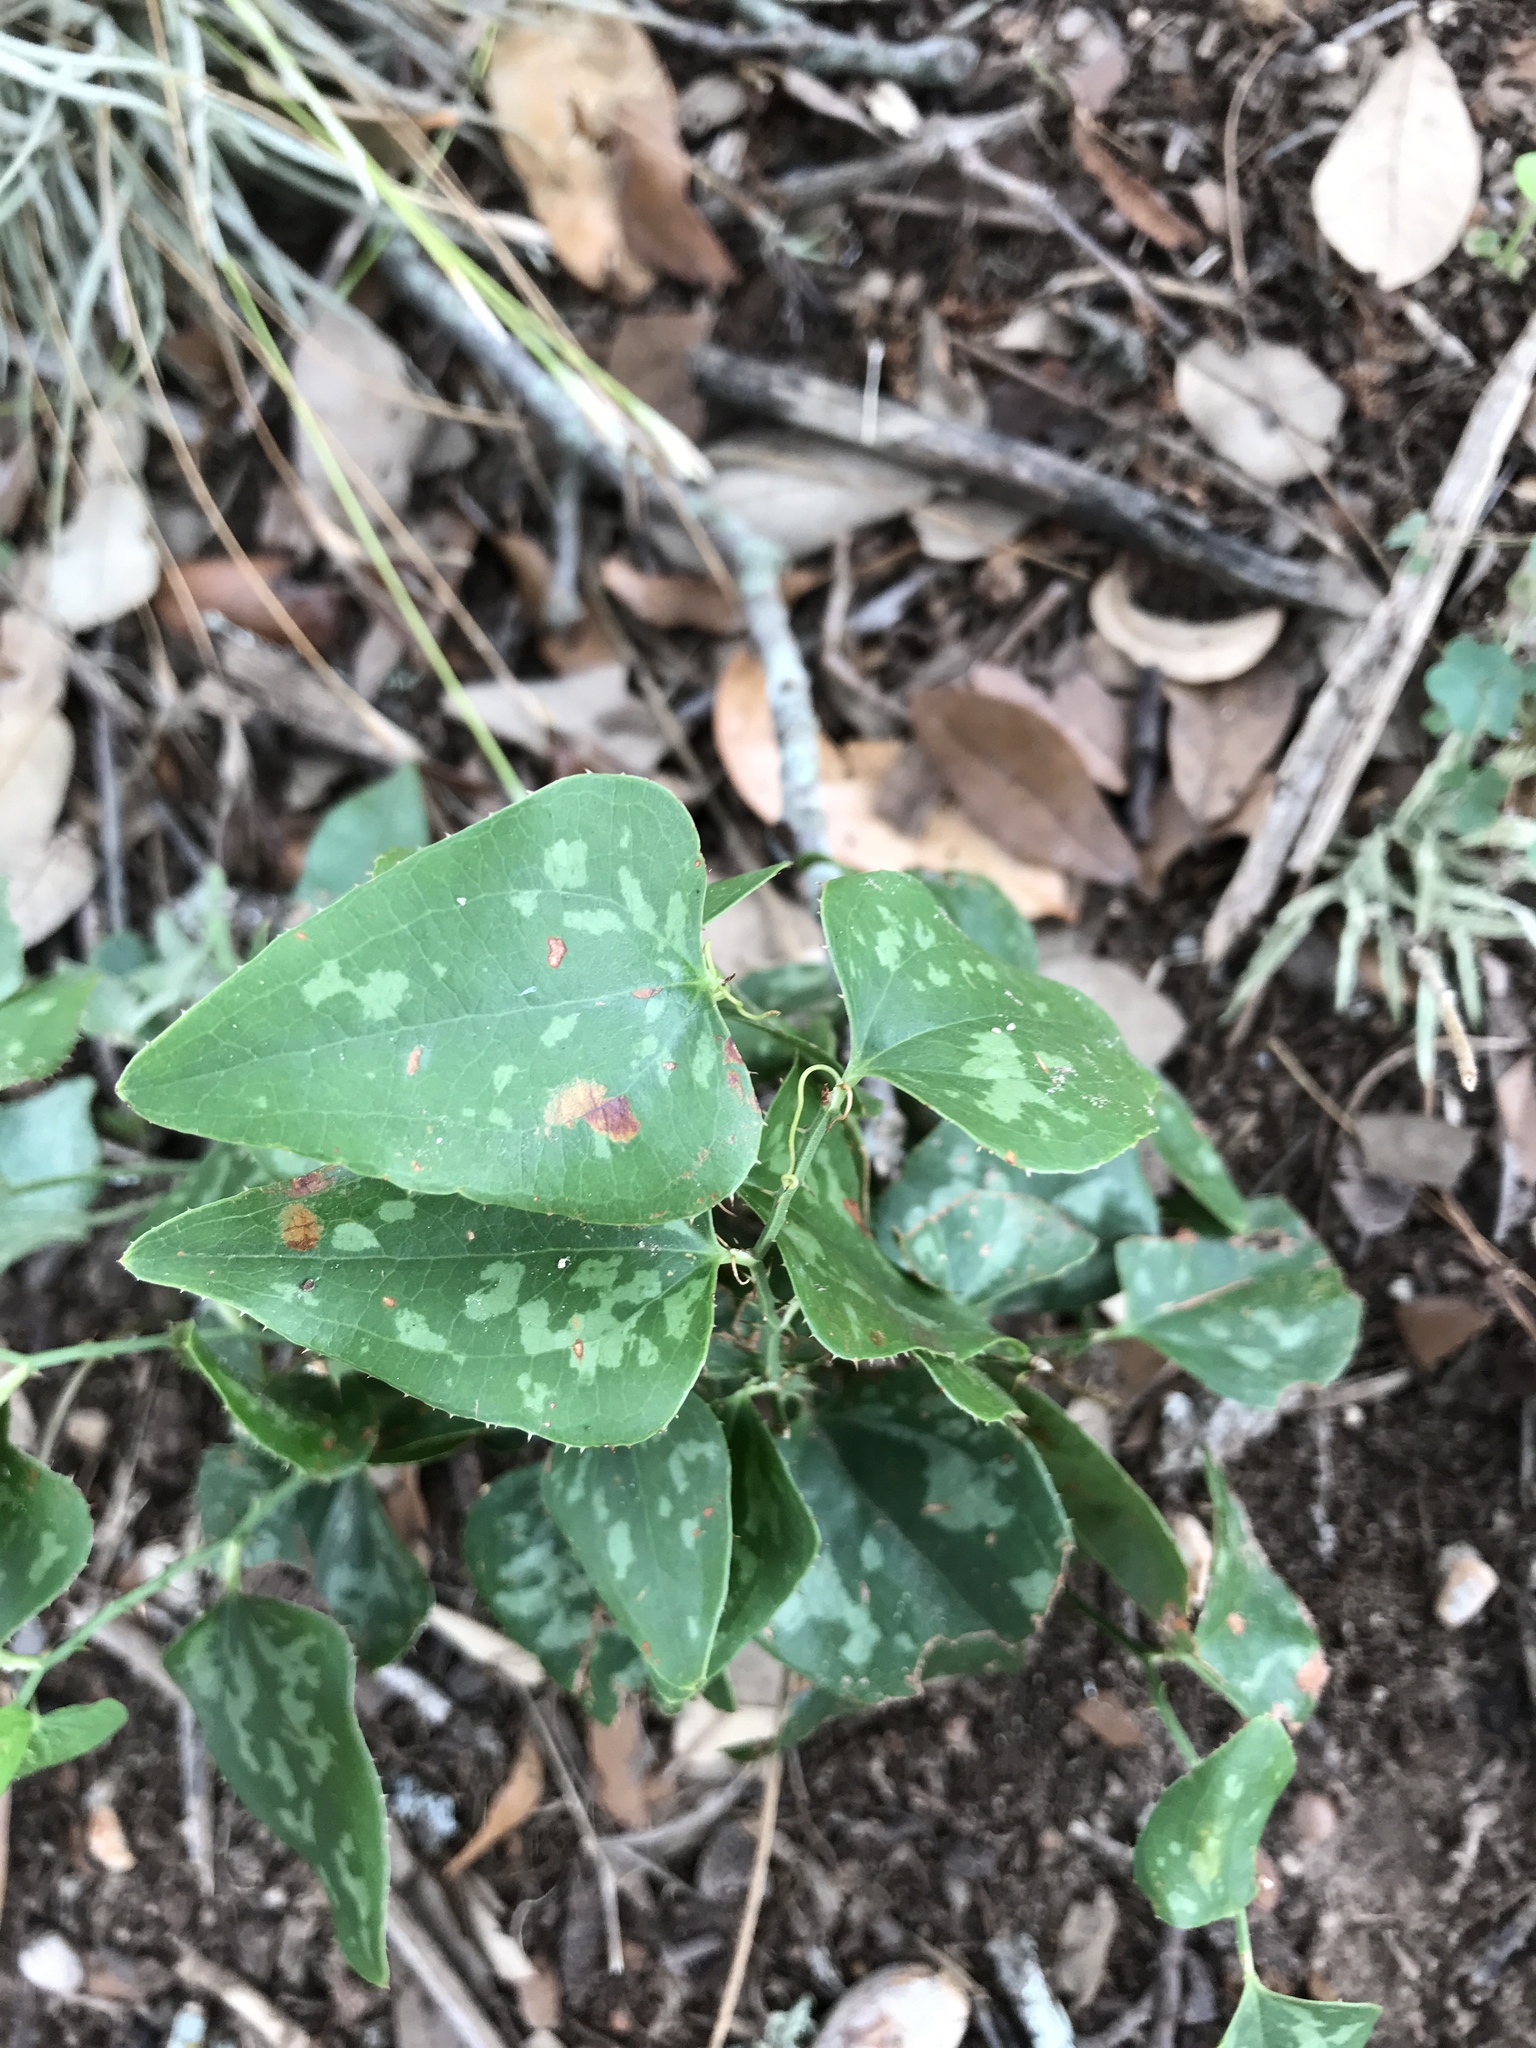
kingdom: Plantae
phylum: Tracheophyta
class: Liliopsida
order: Liliales
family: Smilacaceae
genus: Smilax
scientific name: Smilax bona-nox
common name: Catbrier
